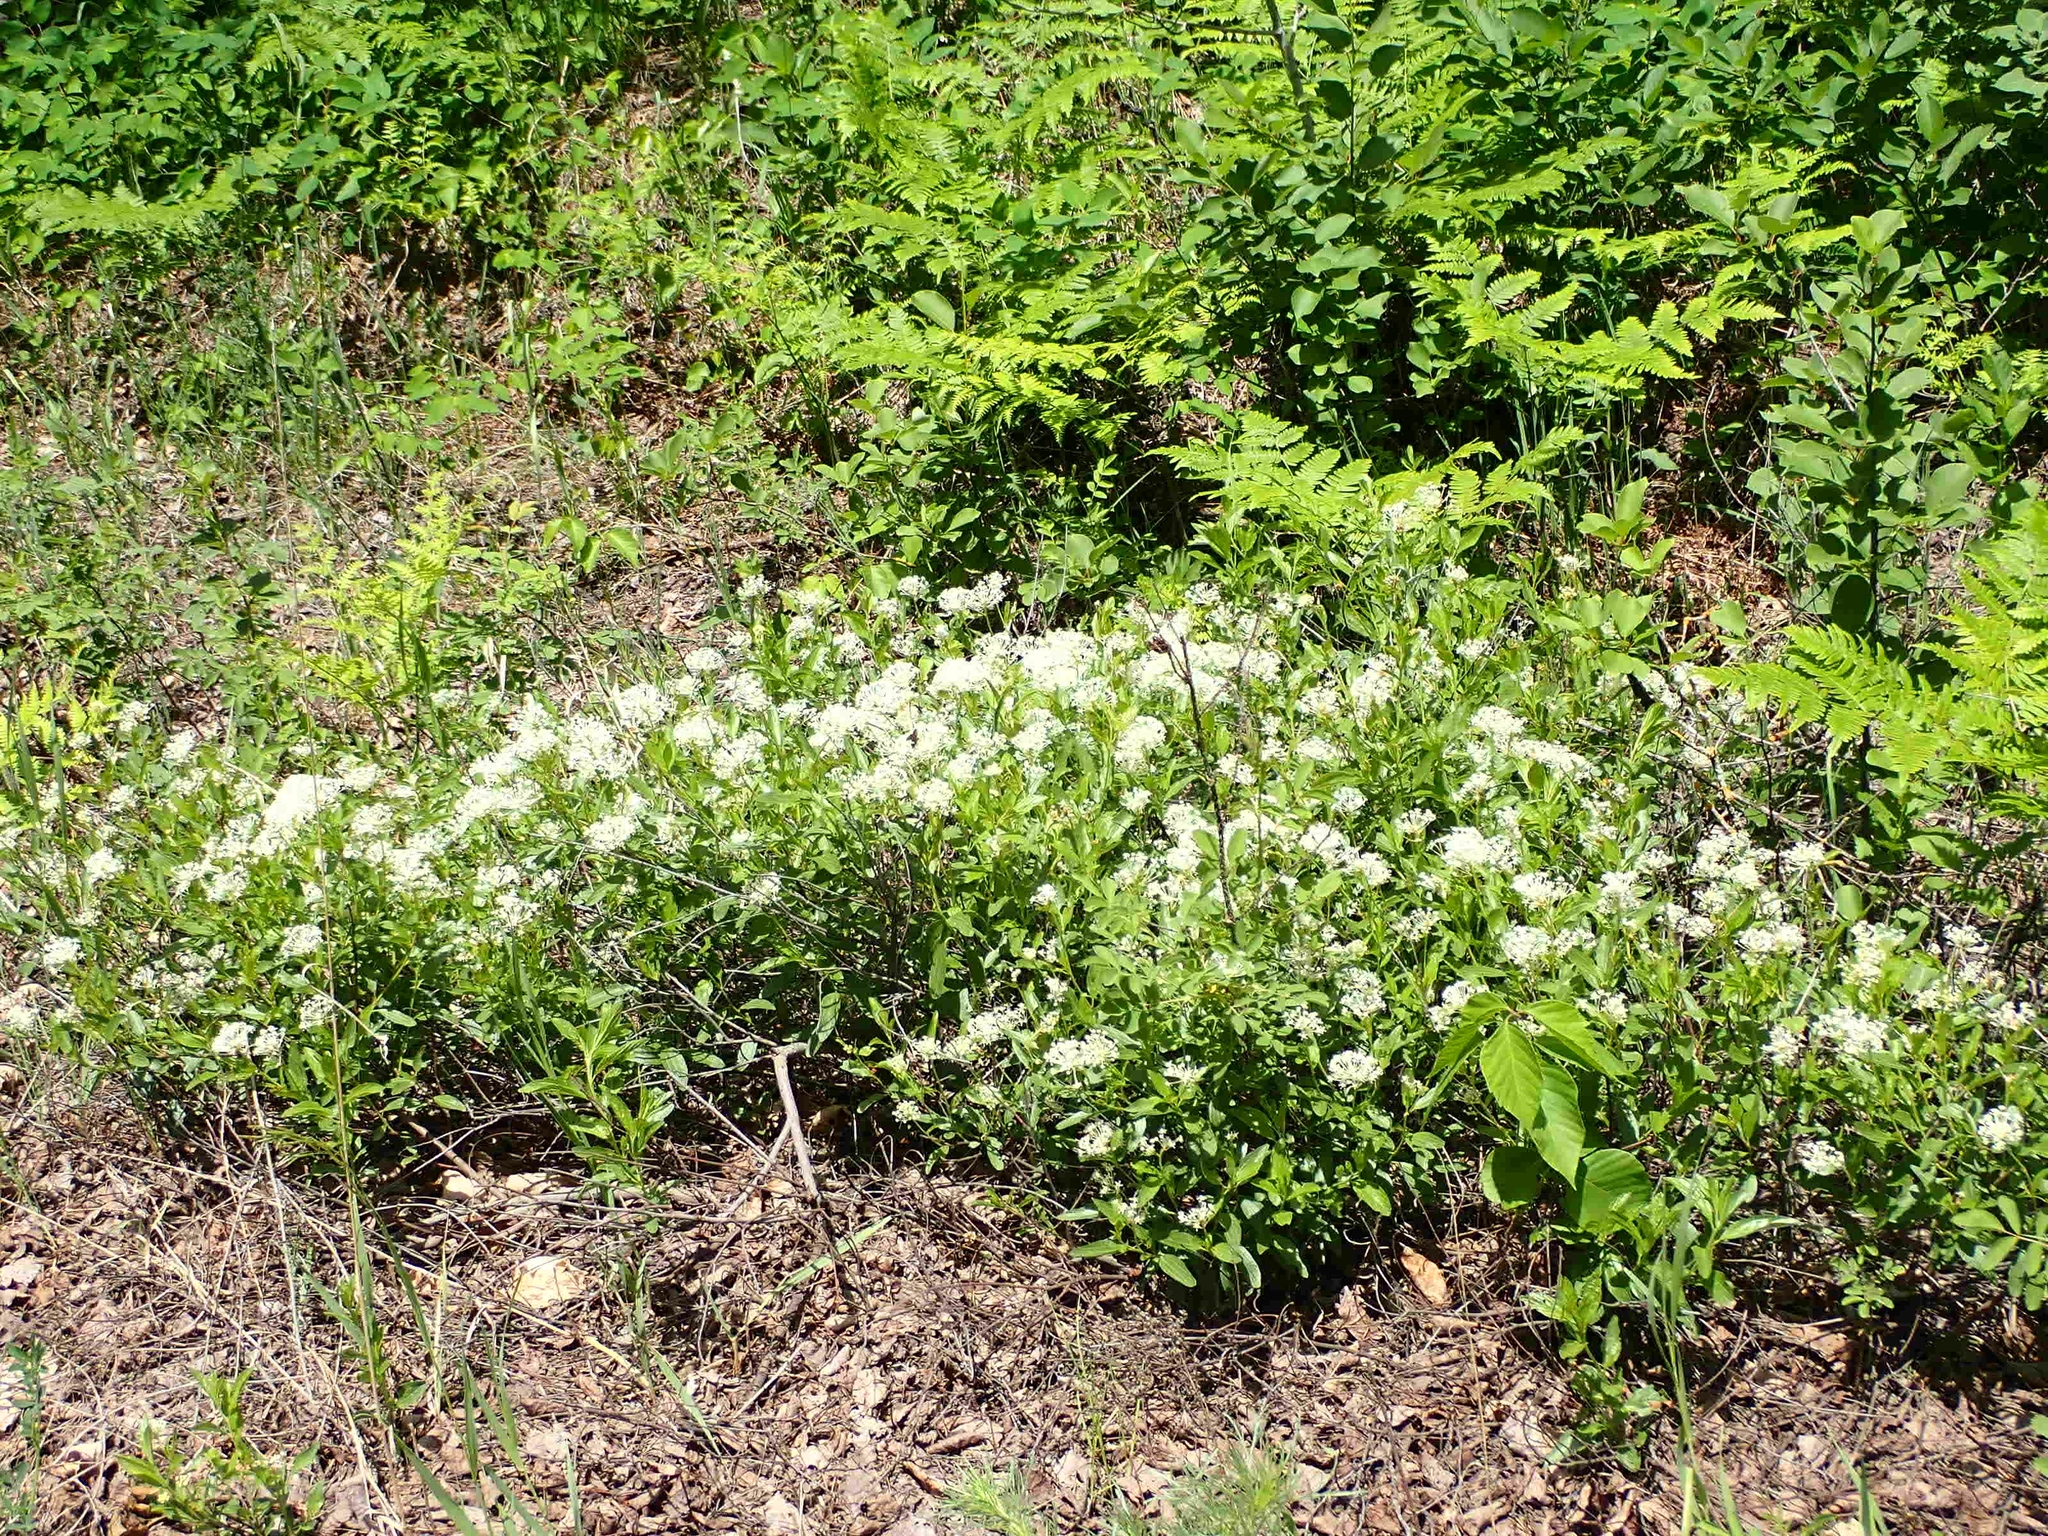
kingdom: Plantae
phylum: Tracheophyta
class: Magnoliopsida
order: Rosales
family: Rhamnaceae
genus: Ceanothus
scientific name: Ceanothus herbaceus
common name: Inland ceanothus
